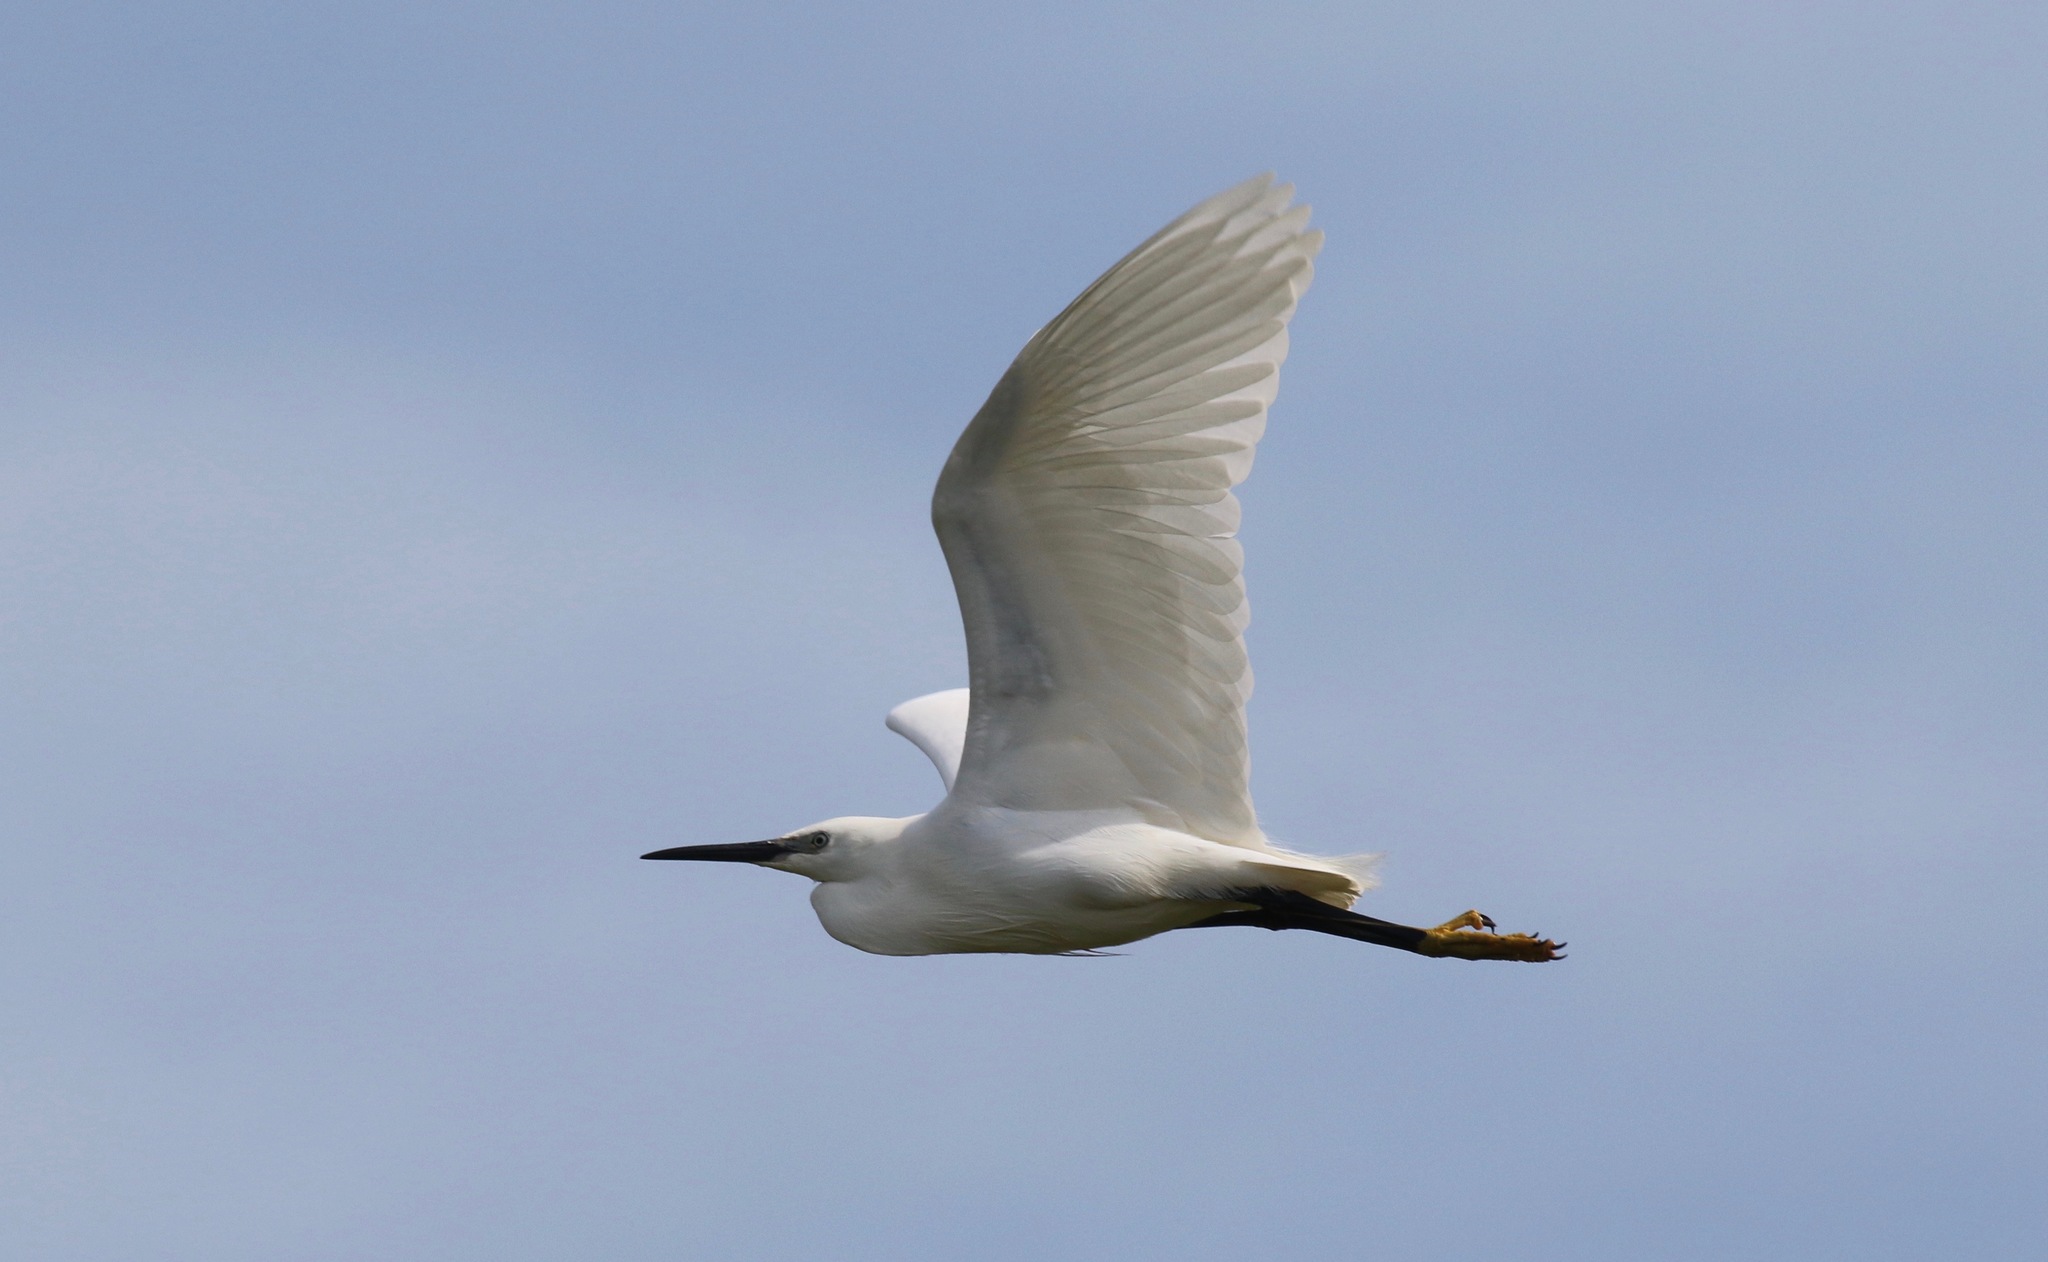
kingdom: Animalia
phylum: Chordata
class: Aves
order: Pelecaniformes
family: Ardeidae
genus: Egretta
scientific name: Egretta garzetta
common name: Little egret
